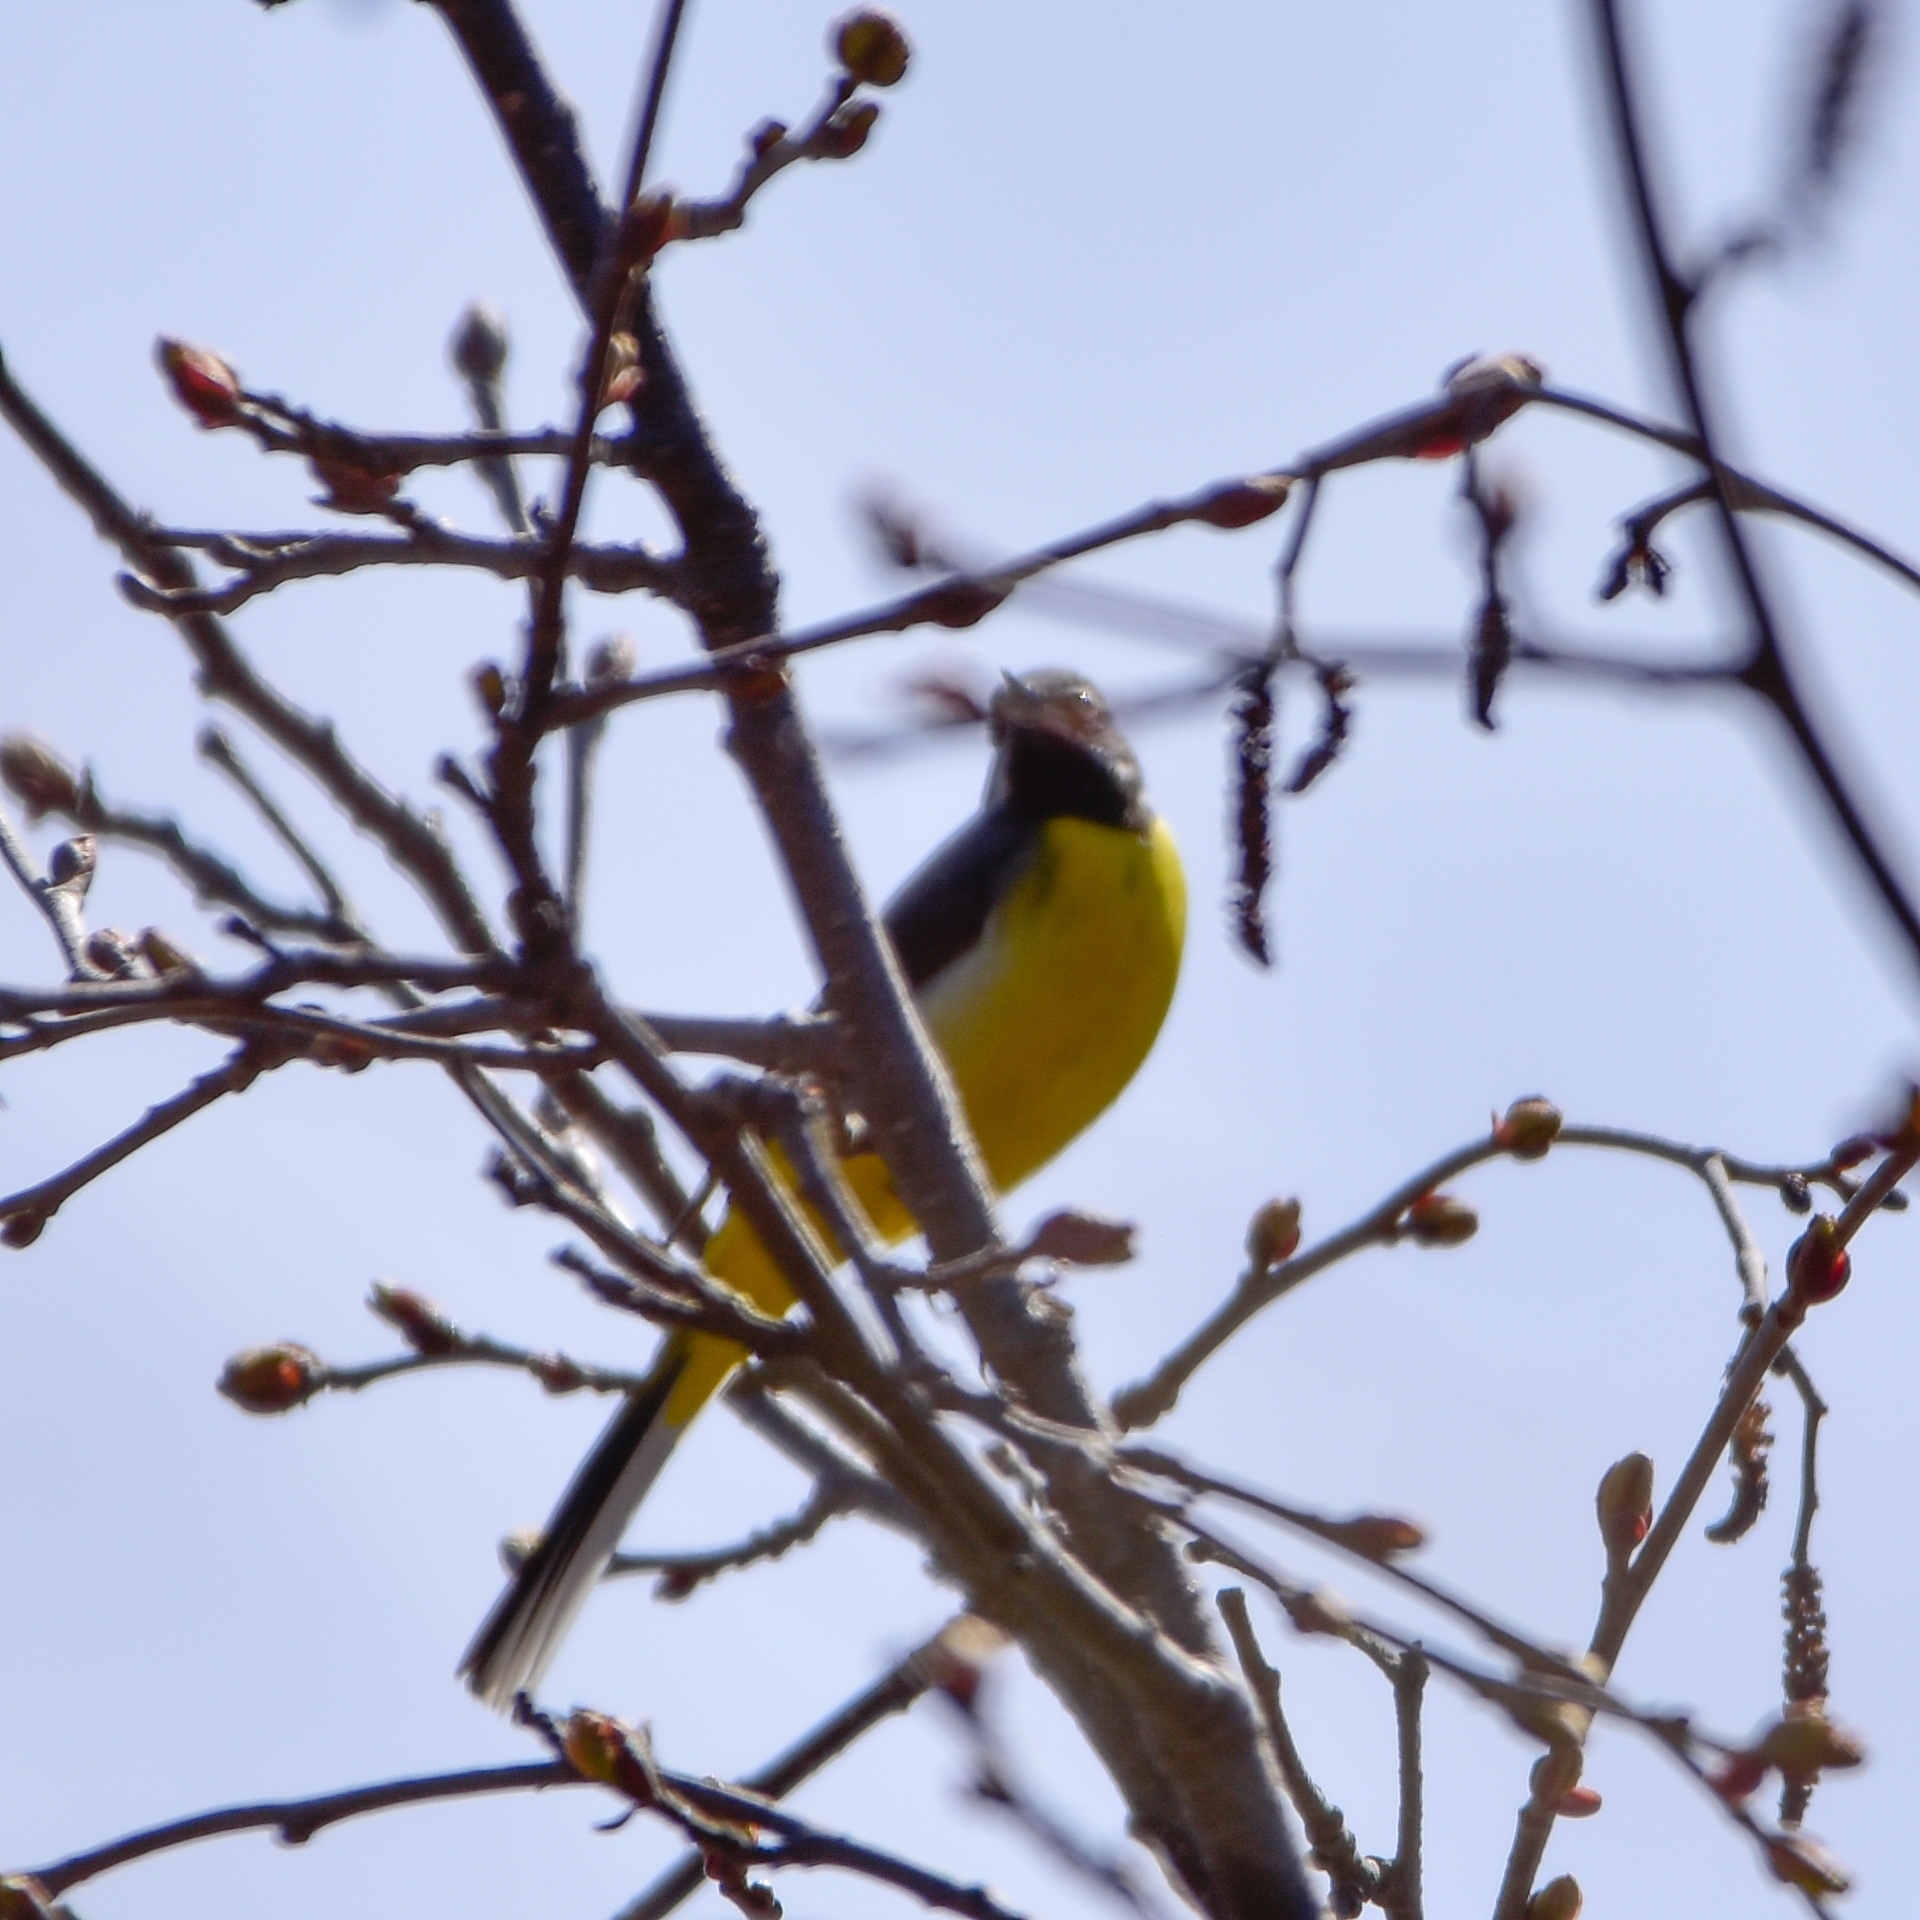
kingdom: Animalia
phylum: Chordata
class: Aves
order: Passeriformes
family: Motacillidae
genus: Motacilla
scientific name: Motacilla cinerea
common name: Grey wagtail
